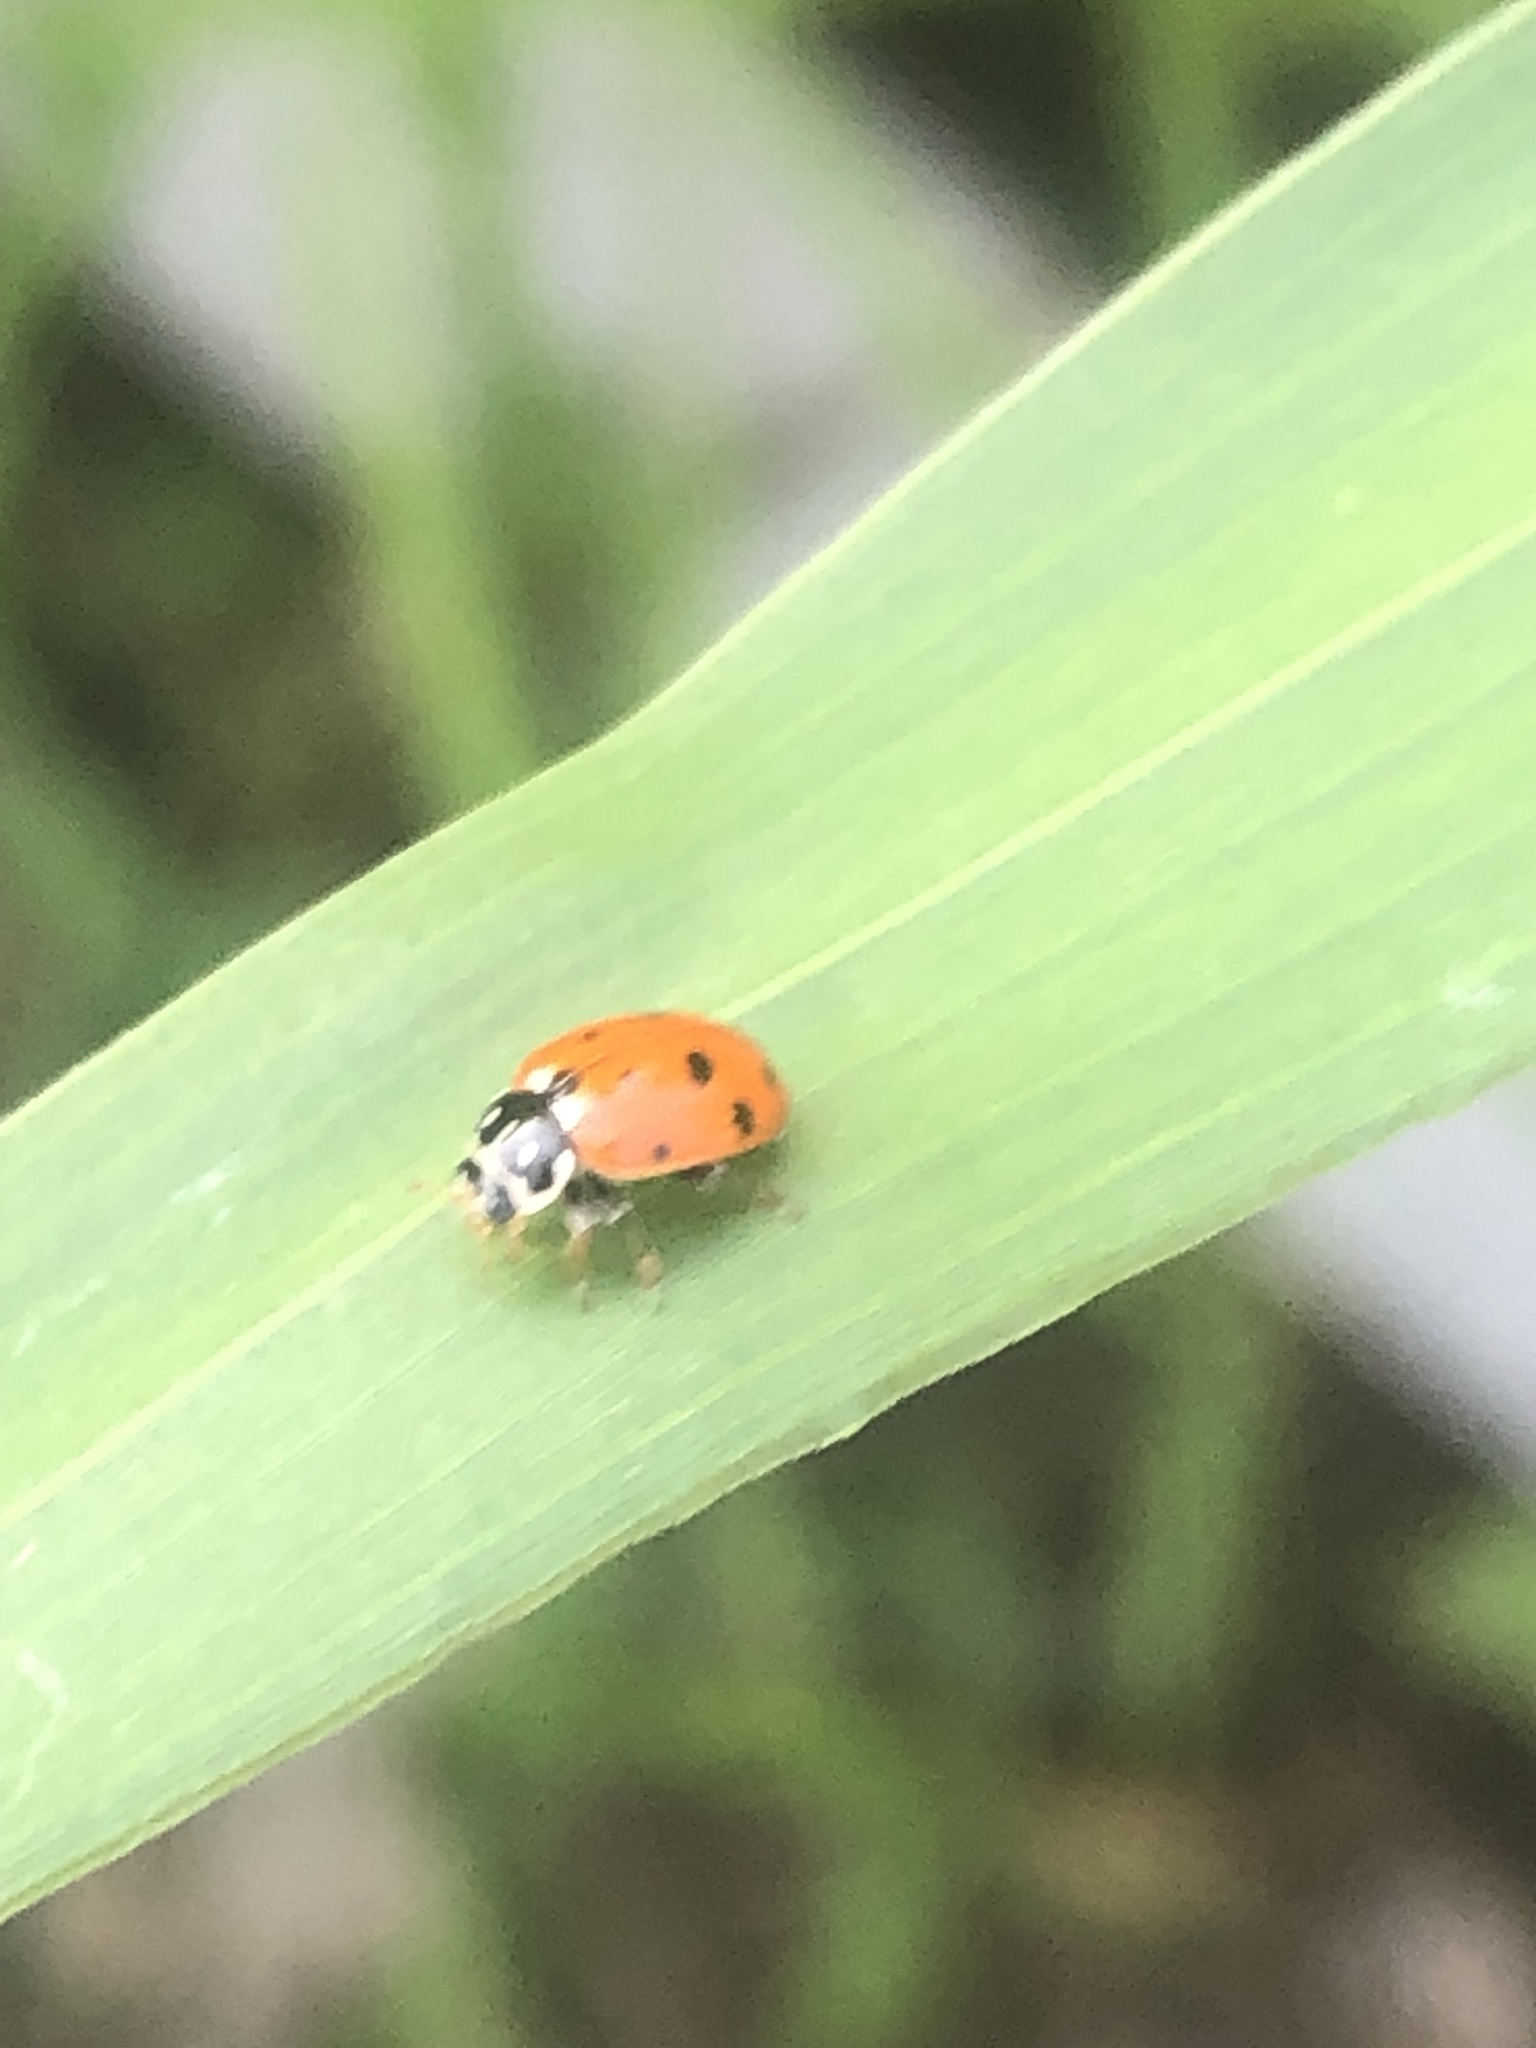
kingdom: Animalia
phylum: Arthropoda
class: Insecta
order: Coleoptera
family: Coccinellidae
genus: Hippodamia
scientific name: Hippodamia variegata
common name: Ladybird beetle
